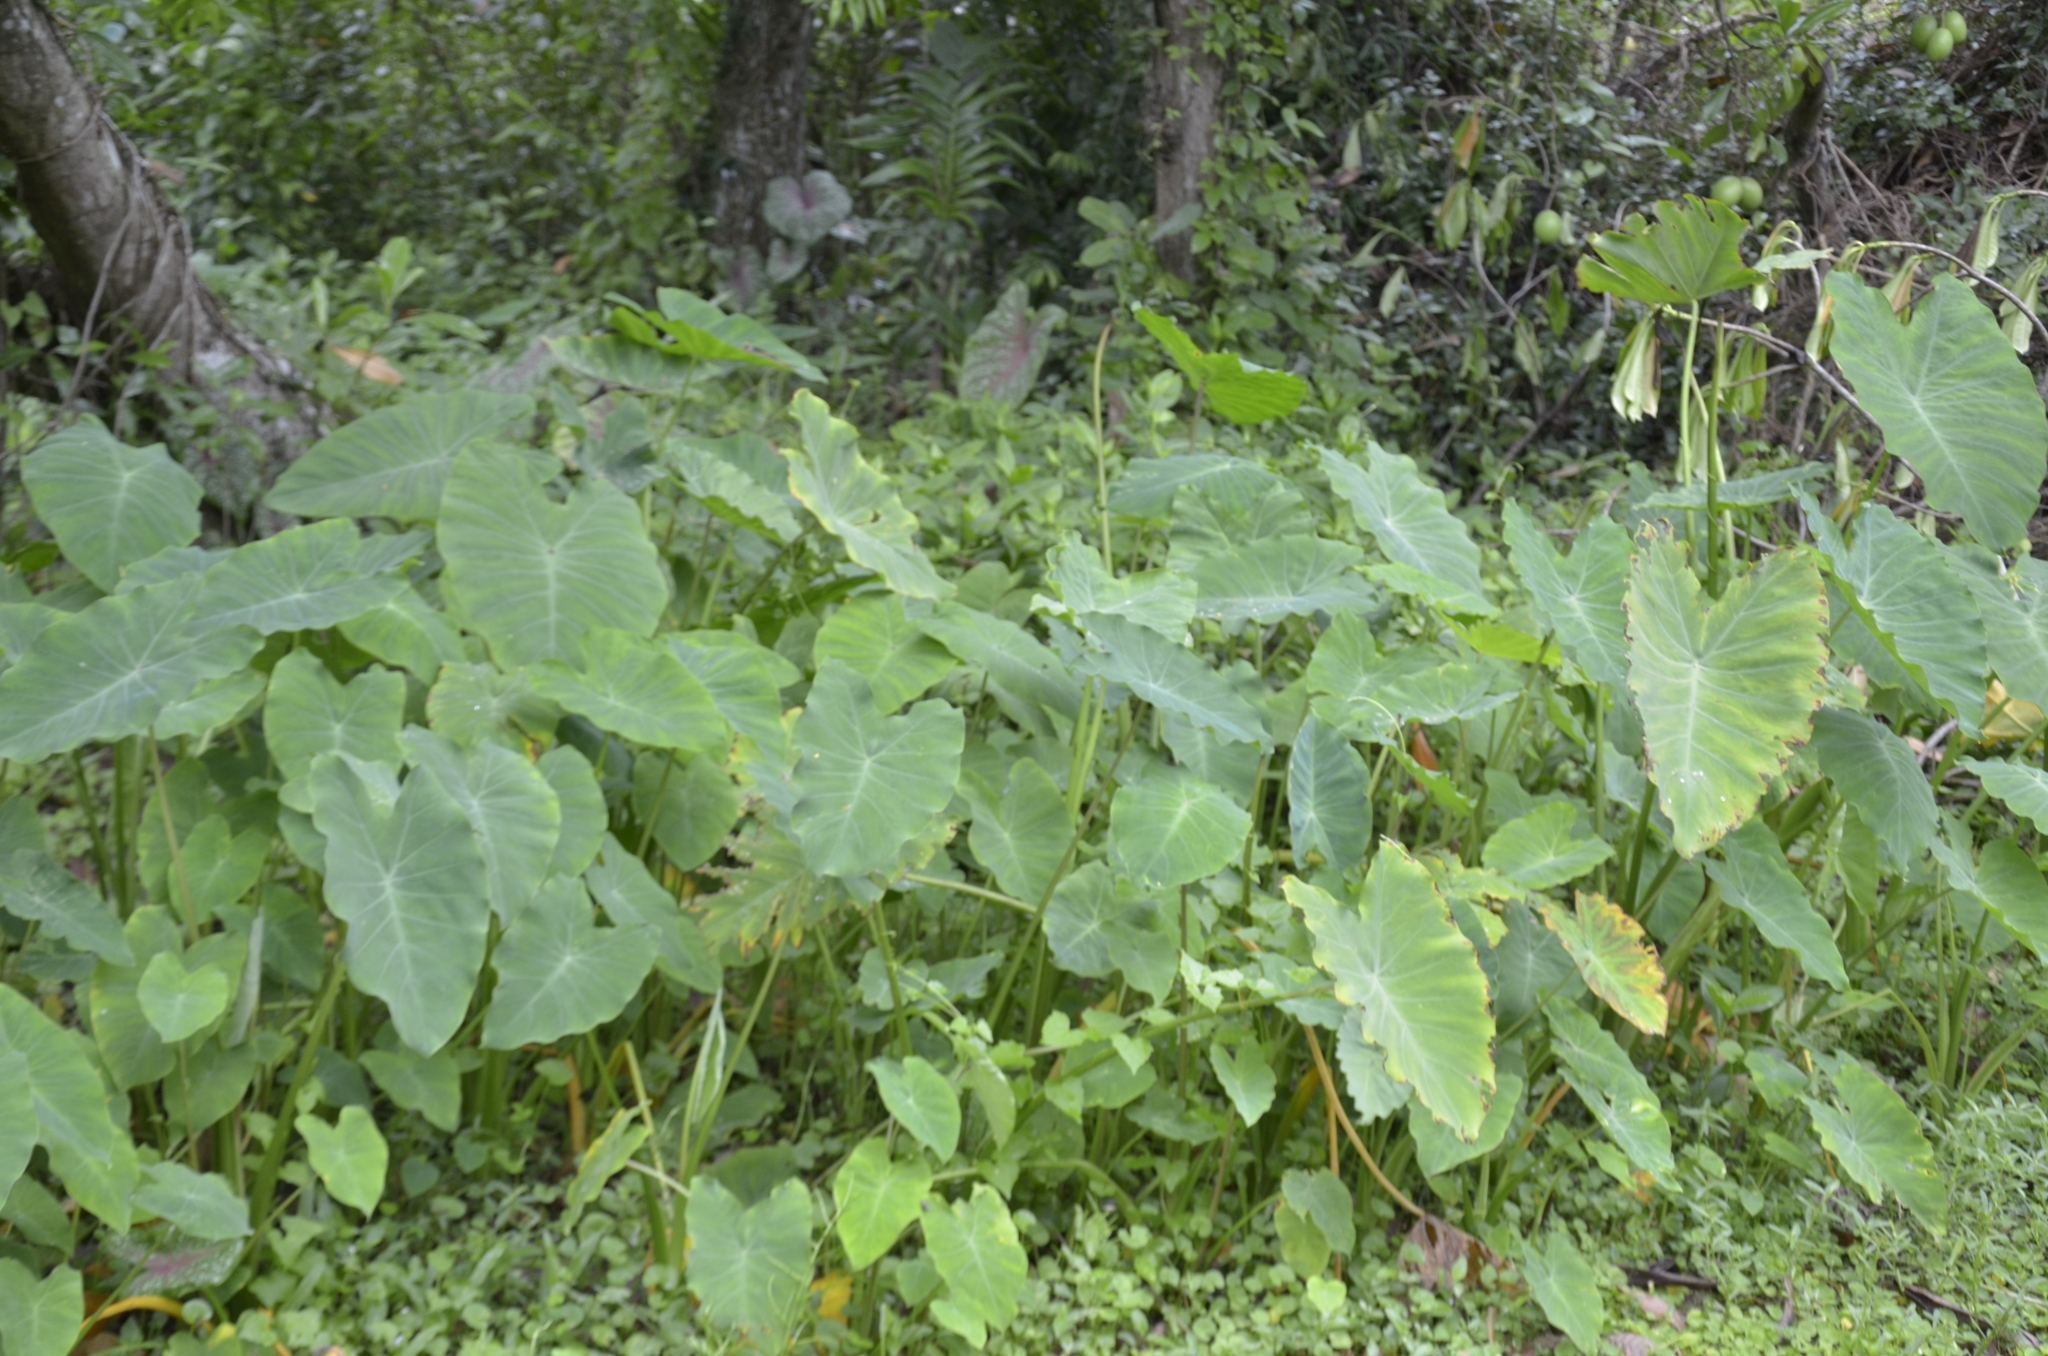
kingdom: Plantae
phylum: Tracheophyta
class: Liliopsida
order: Alismatales
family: Araceae
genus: Colocasia
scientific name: Colocasia esculenta
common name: Taro
